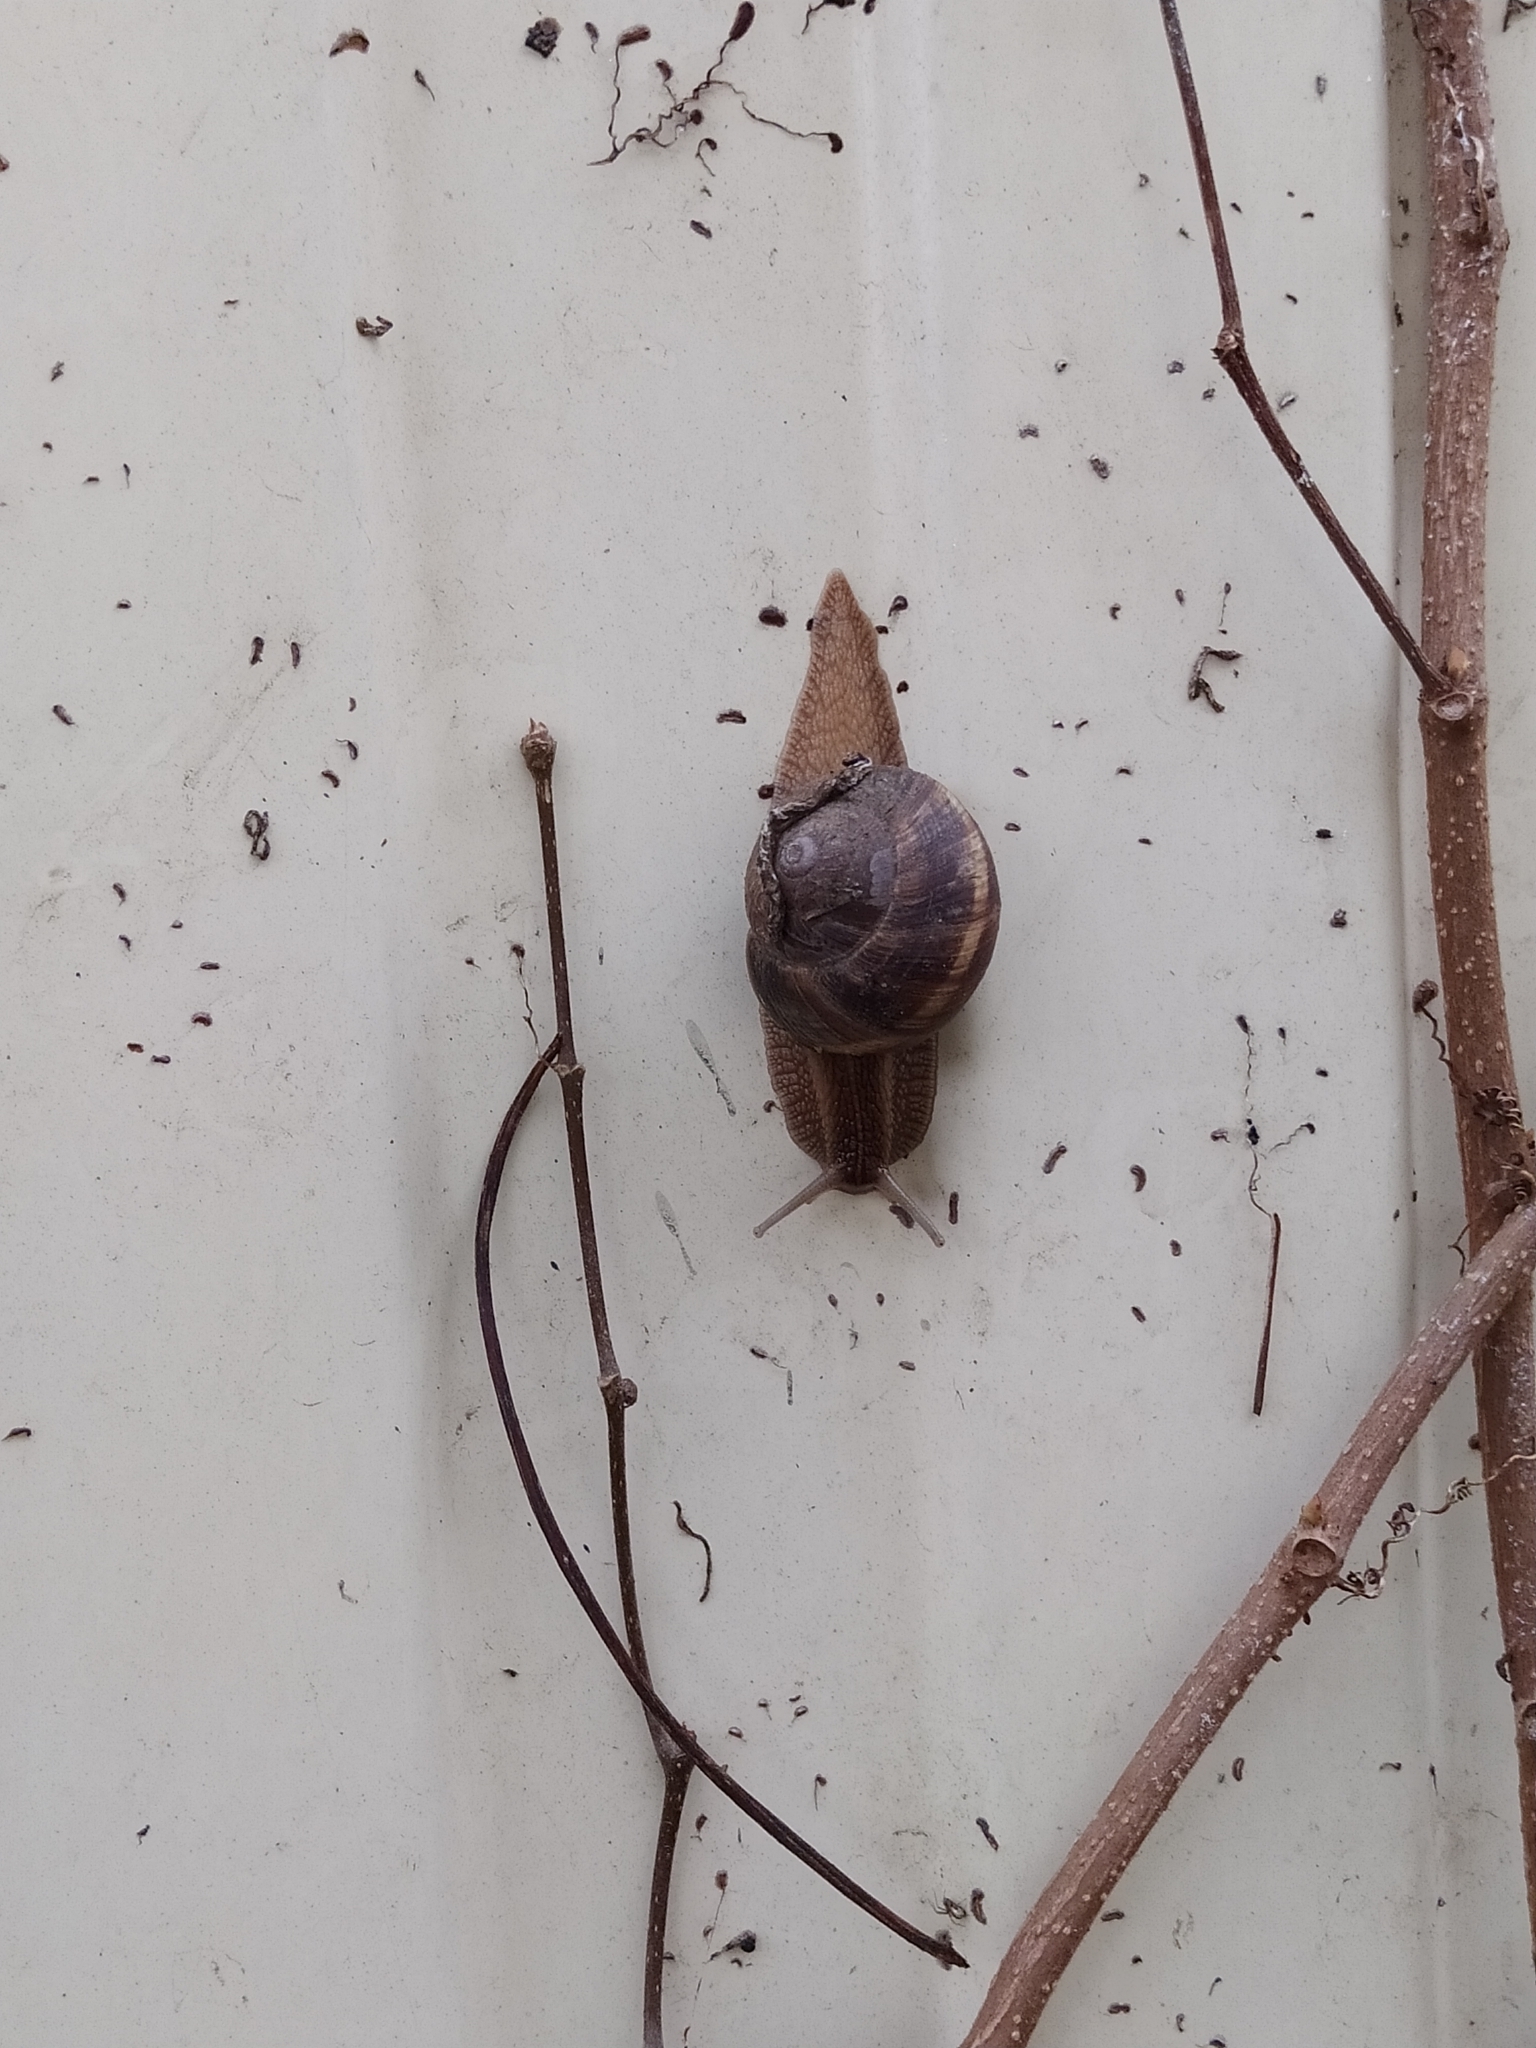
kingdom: Animalia
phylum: Mollusca
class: Gastropoda
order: Stylommatophora
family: Helicidae
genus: Helix
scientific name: Helix lucorum
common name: Turkish snail
